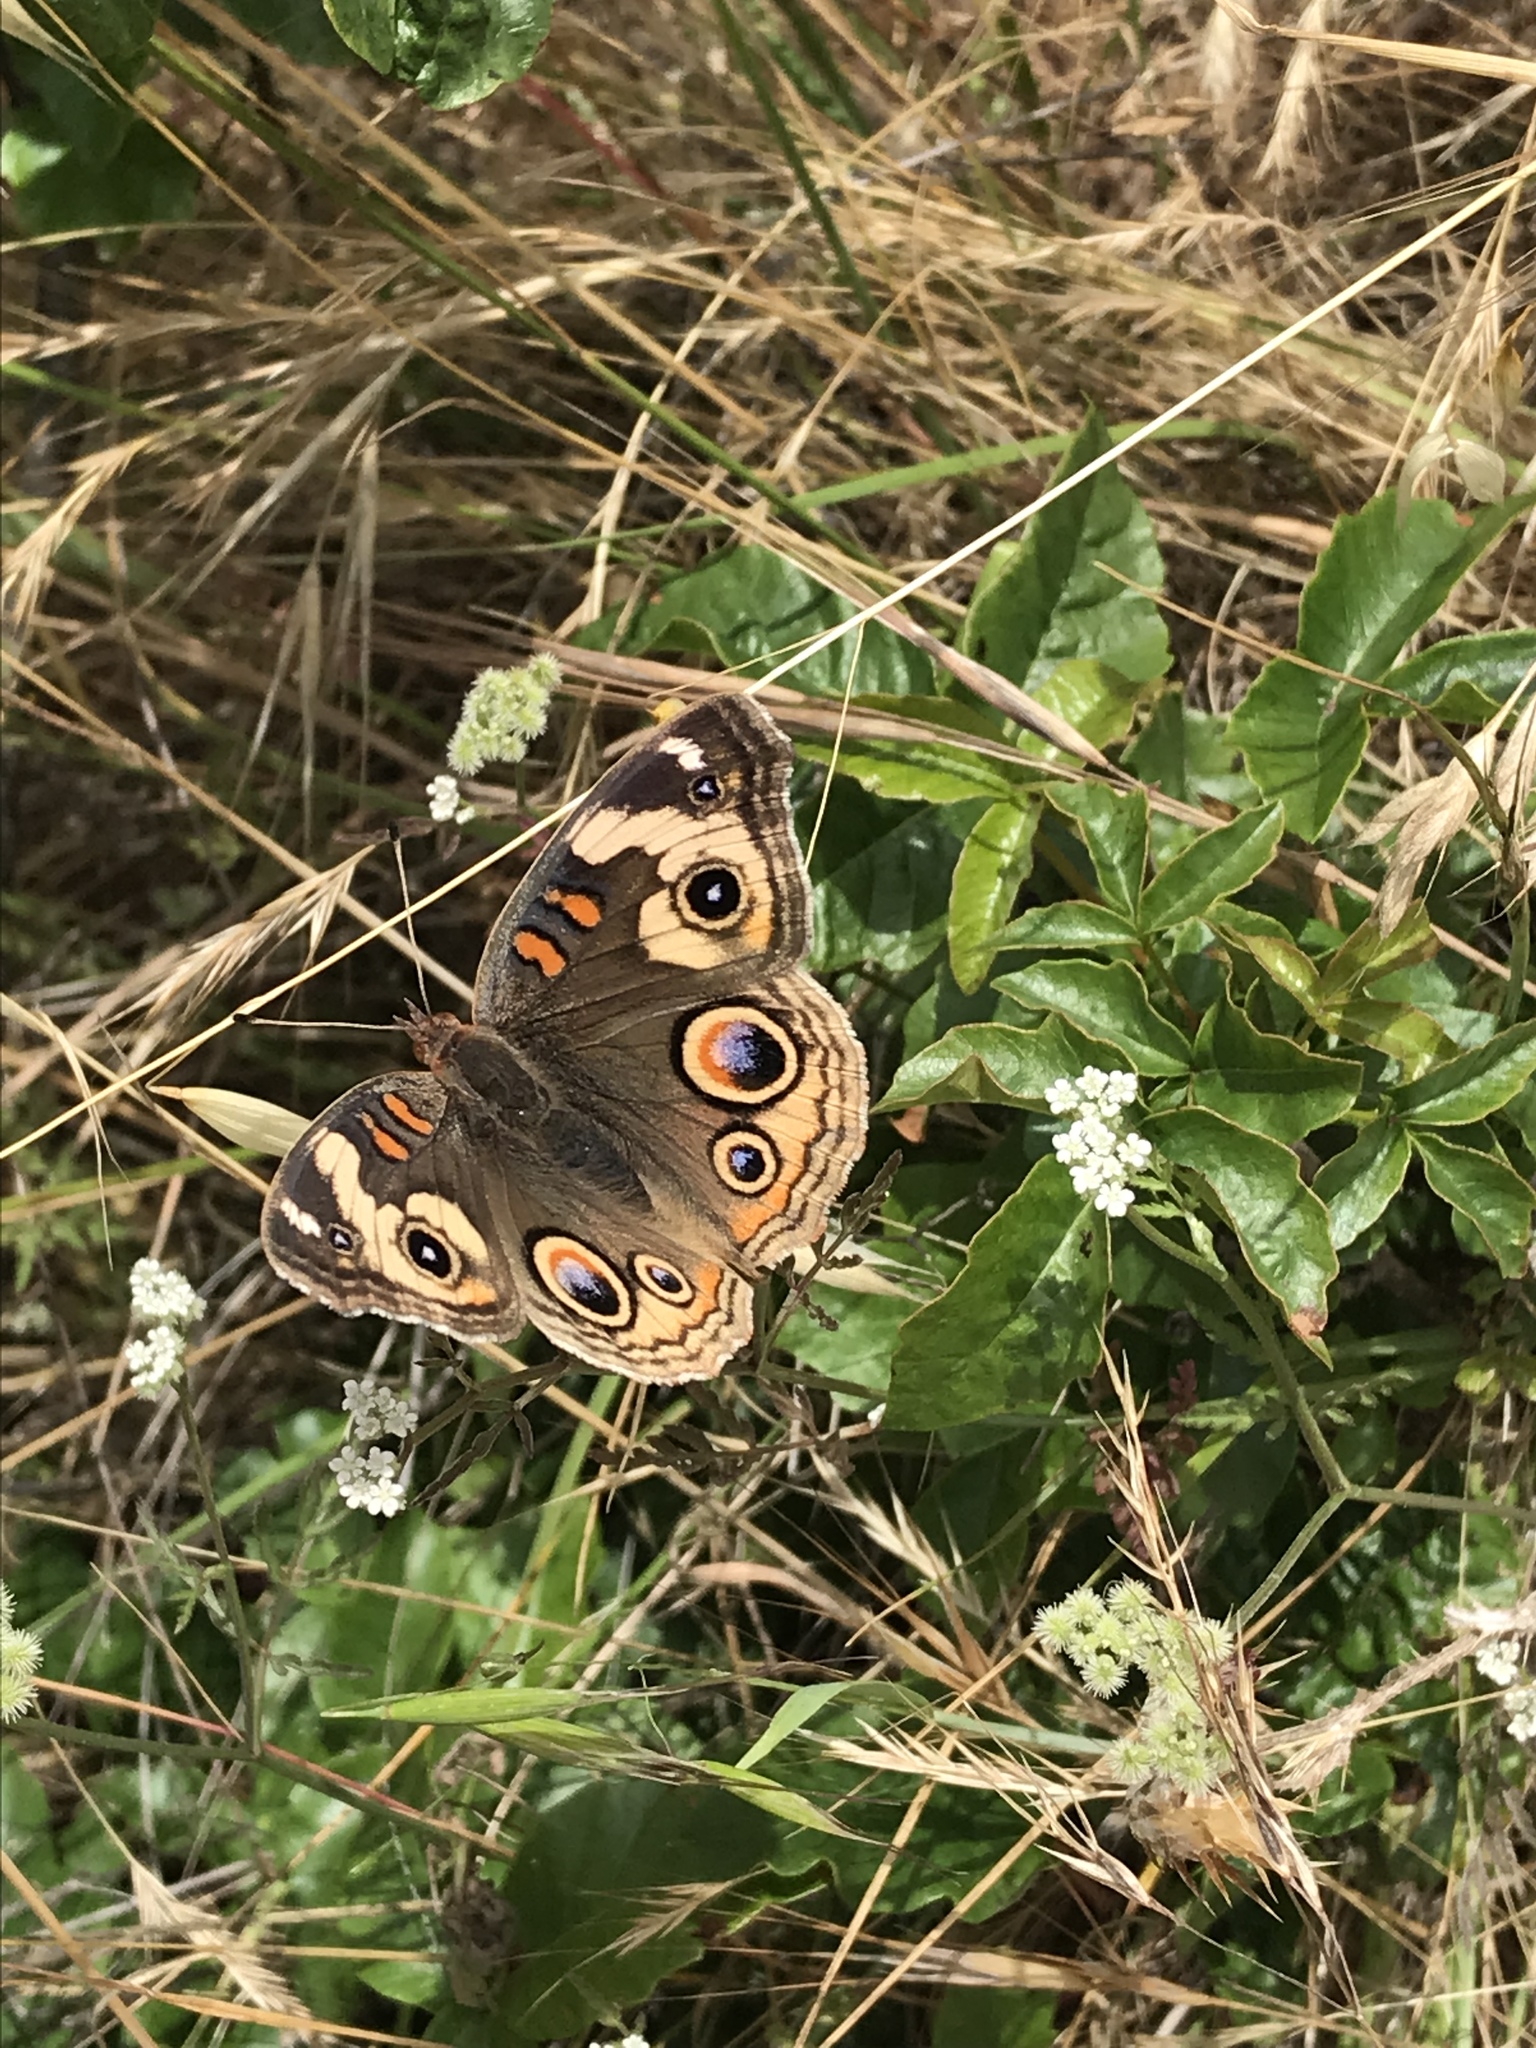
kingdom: Animalia
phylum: Arthropoda
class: Insecta
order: Lepidoptera
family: Nymphalidae
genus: Junonia
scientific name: Junonia grisea
